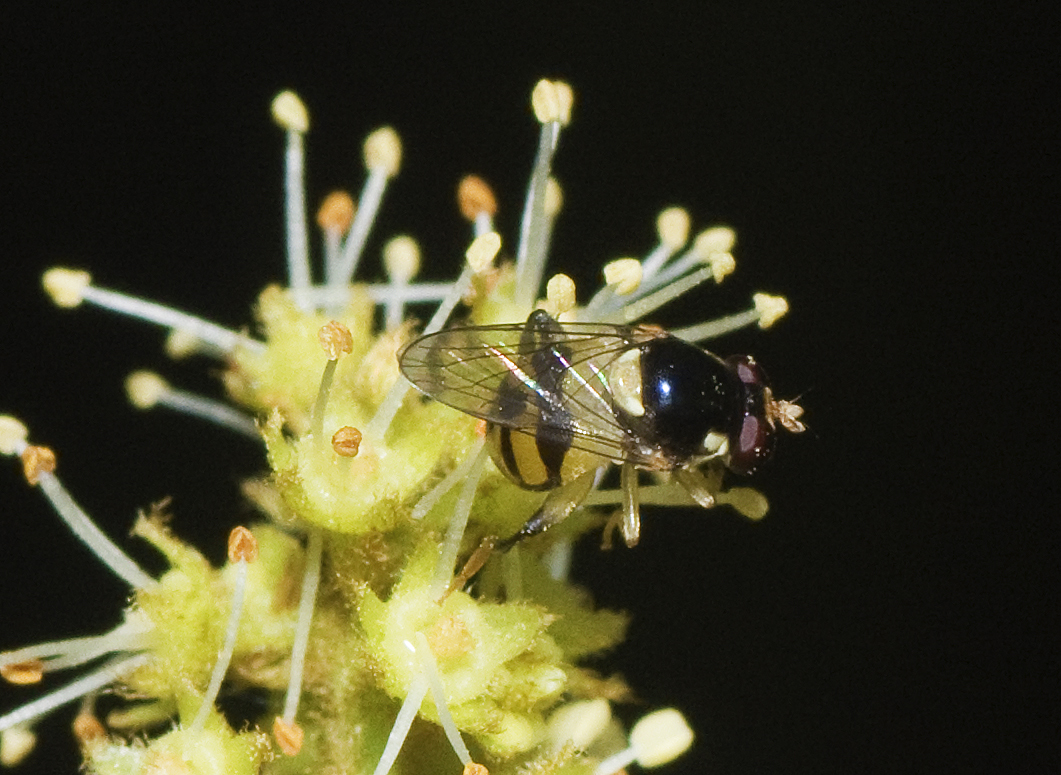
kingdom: Animalia
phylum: Arthropoda
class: Insecta
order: Diptera
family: Syrphidae
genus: Graptomyza
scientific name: Graptomyza flavicollis
